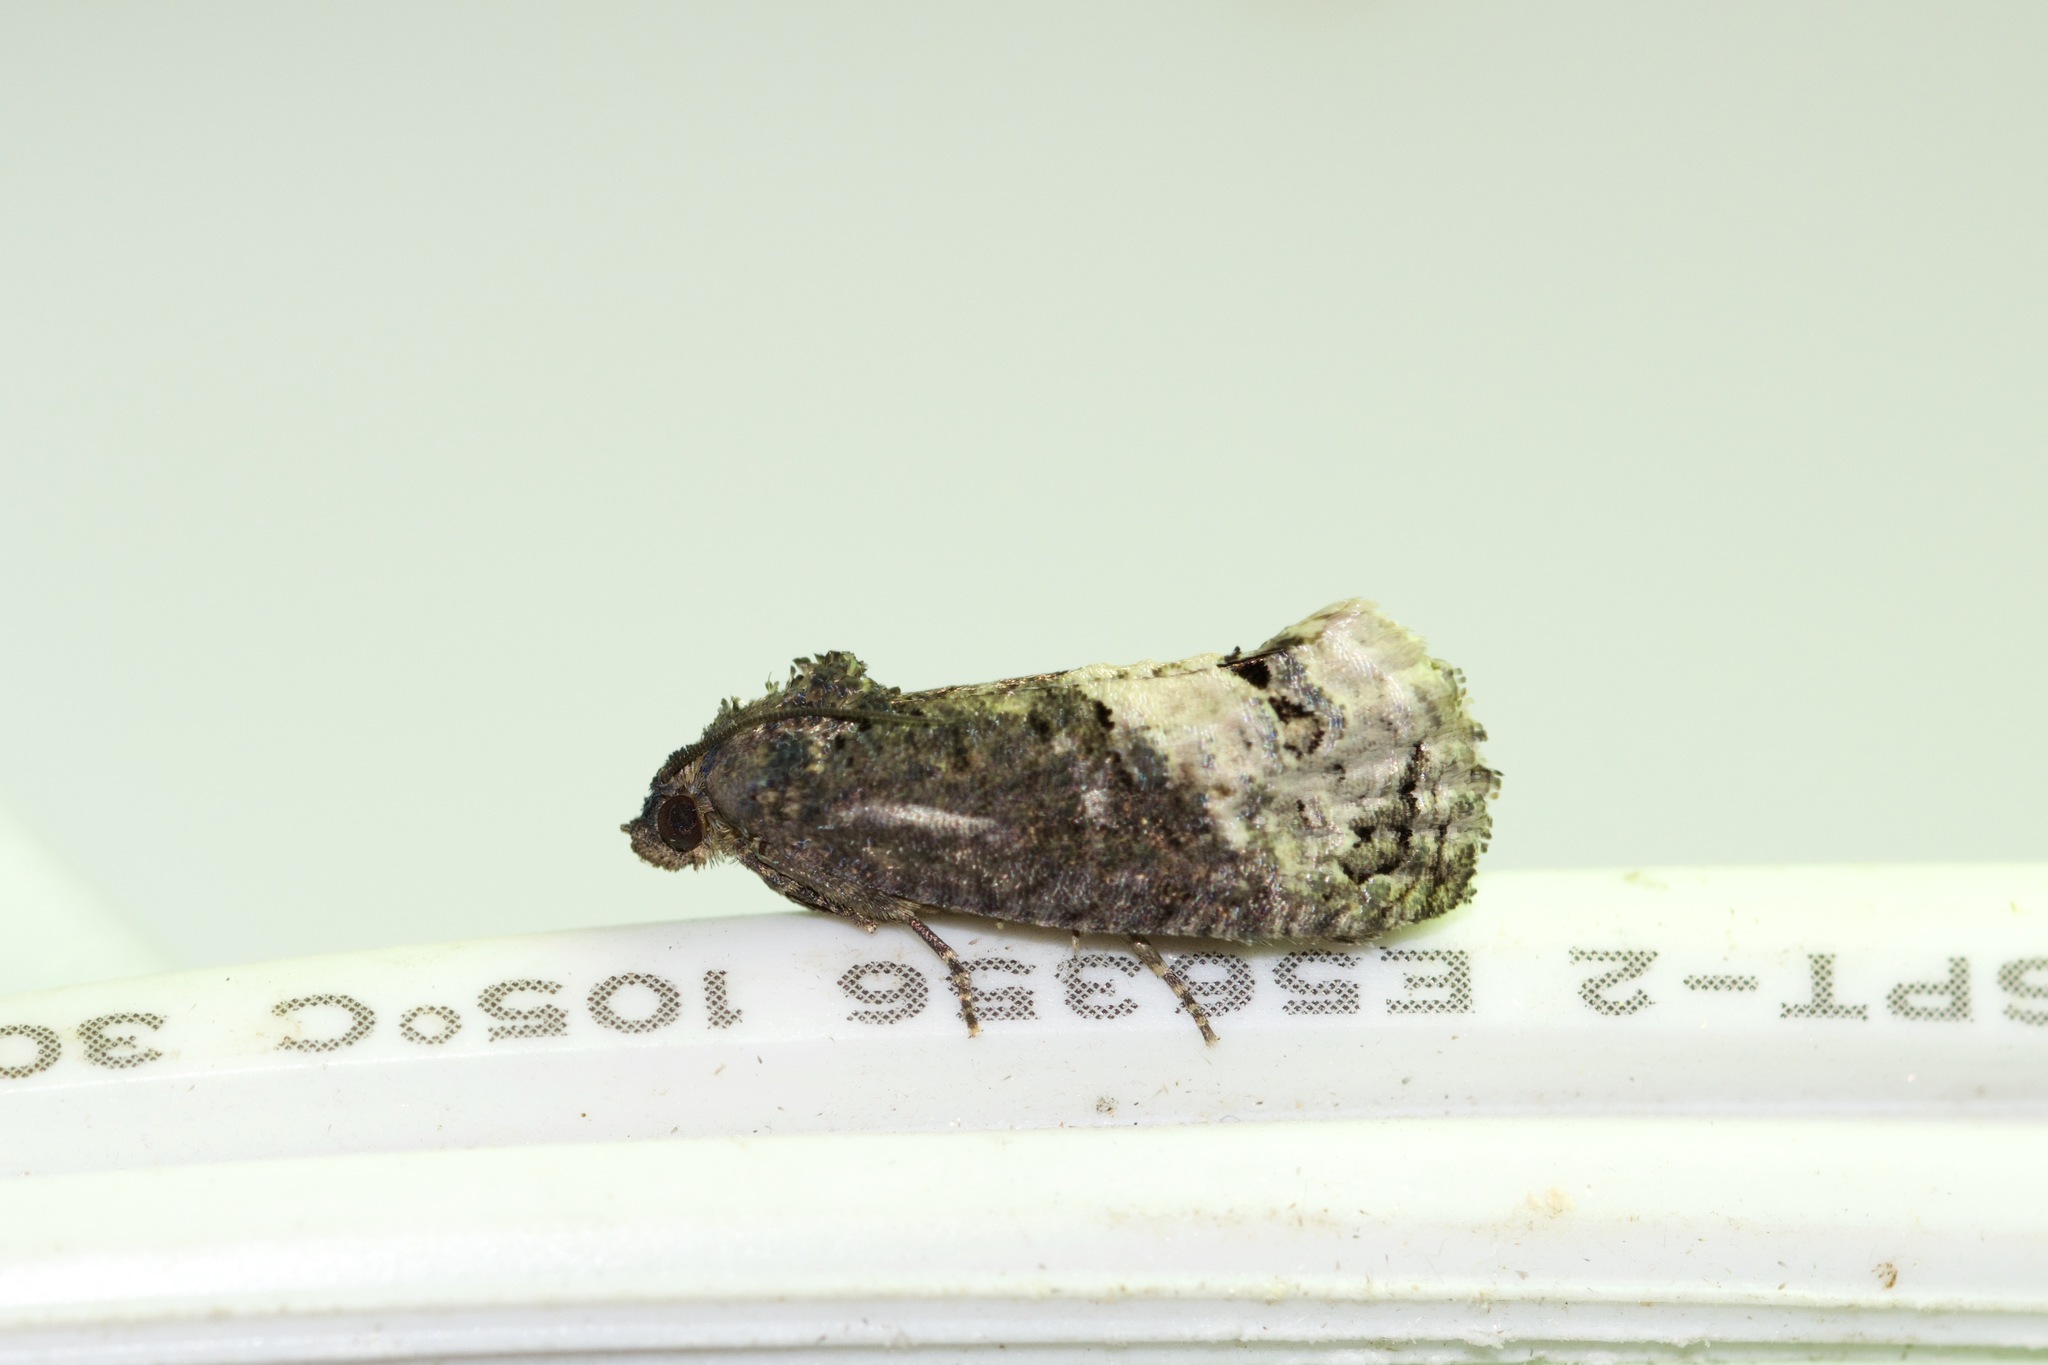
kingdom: Animalia
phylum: Arthropoda
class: Insecta
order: Lepidoptera
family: Tortricidae
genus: Ecdytolopha
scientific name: Ecdytolopha insiticiana
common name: Locust twig borer moth
